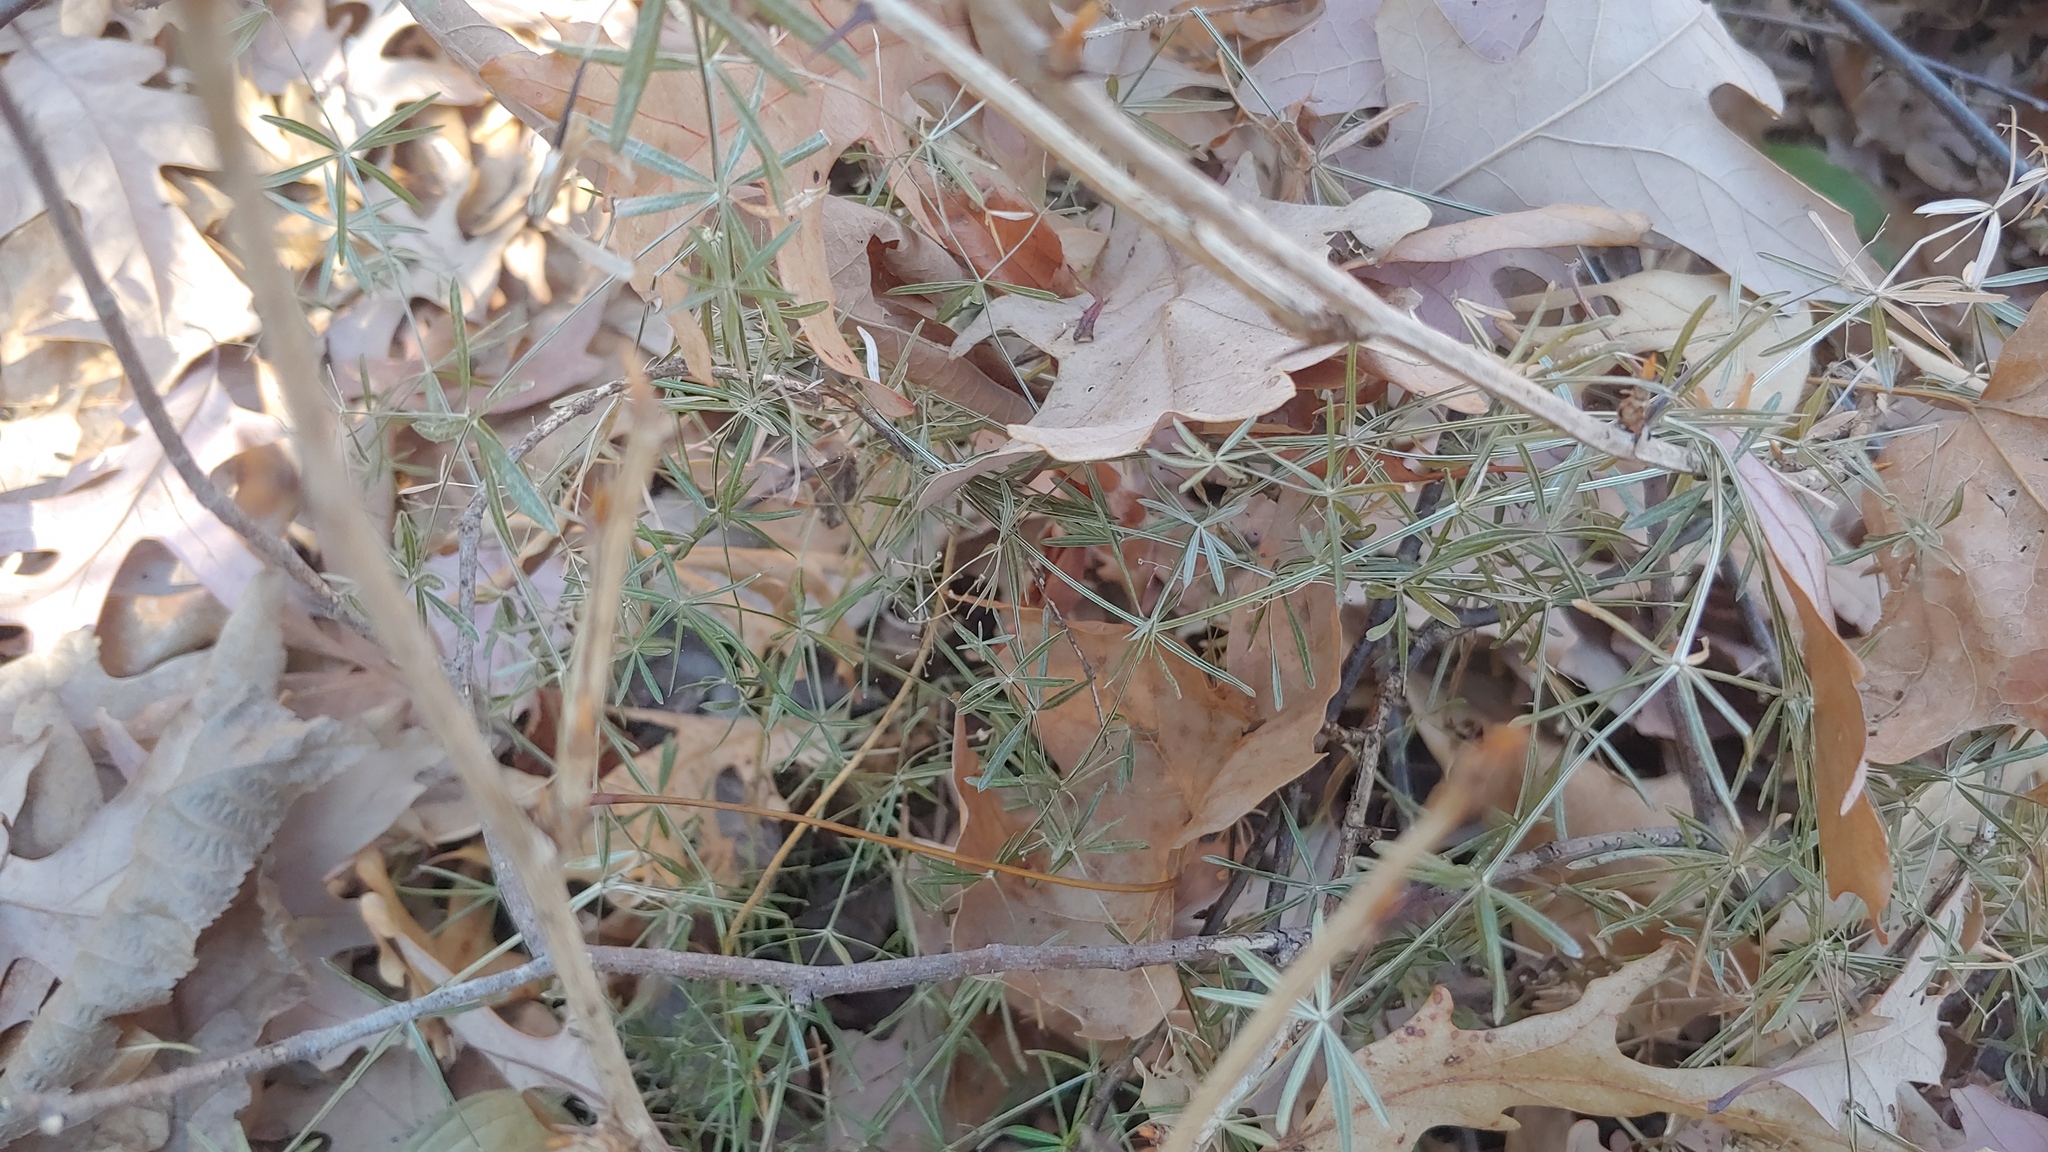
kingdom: Plantae
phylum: Tracheophyta
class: Magnoliopsida
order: Gentianales
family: Rubiaceae
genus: Galium
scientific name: Galium concinnum
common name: Shining bedstraw
